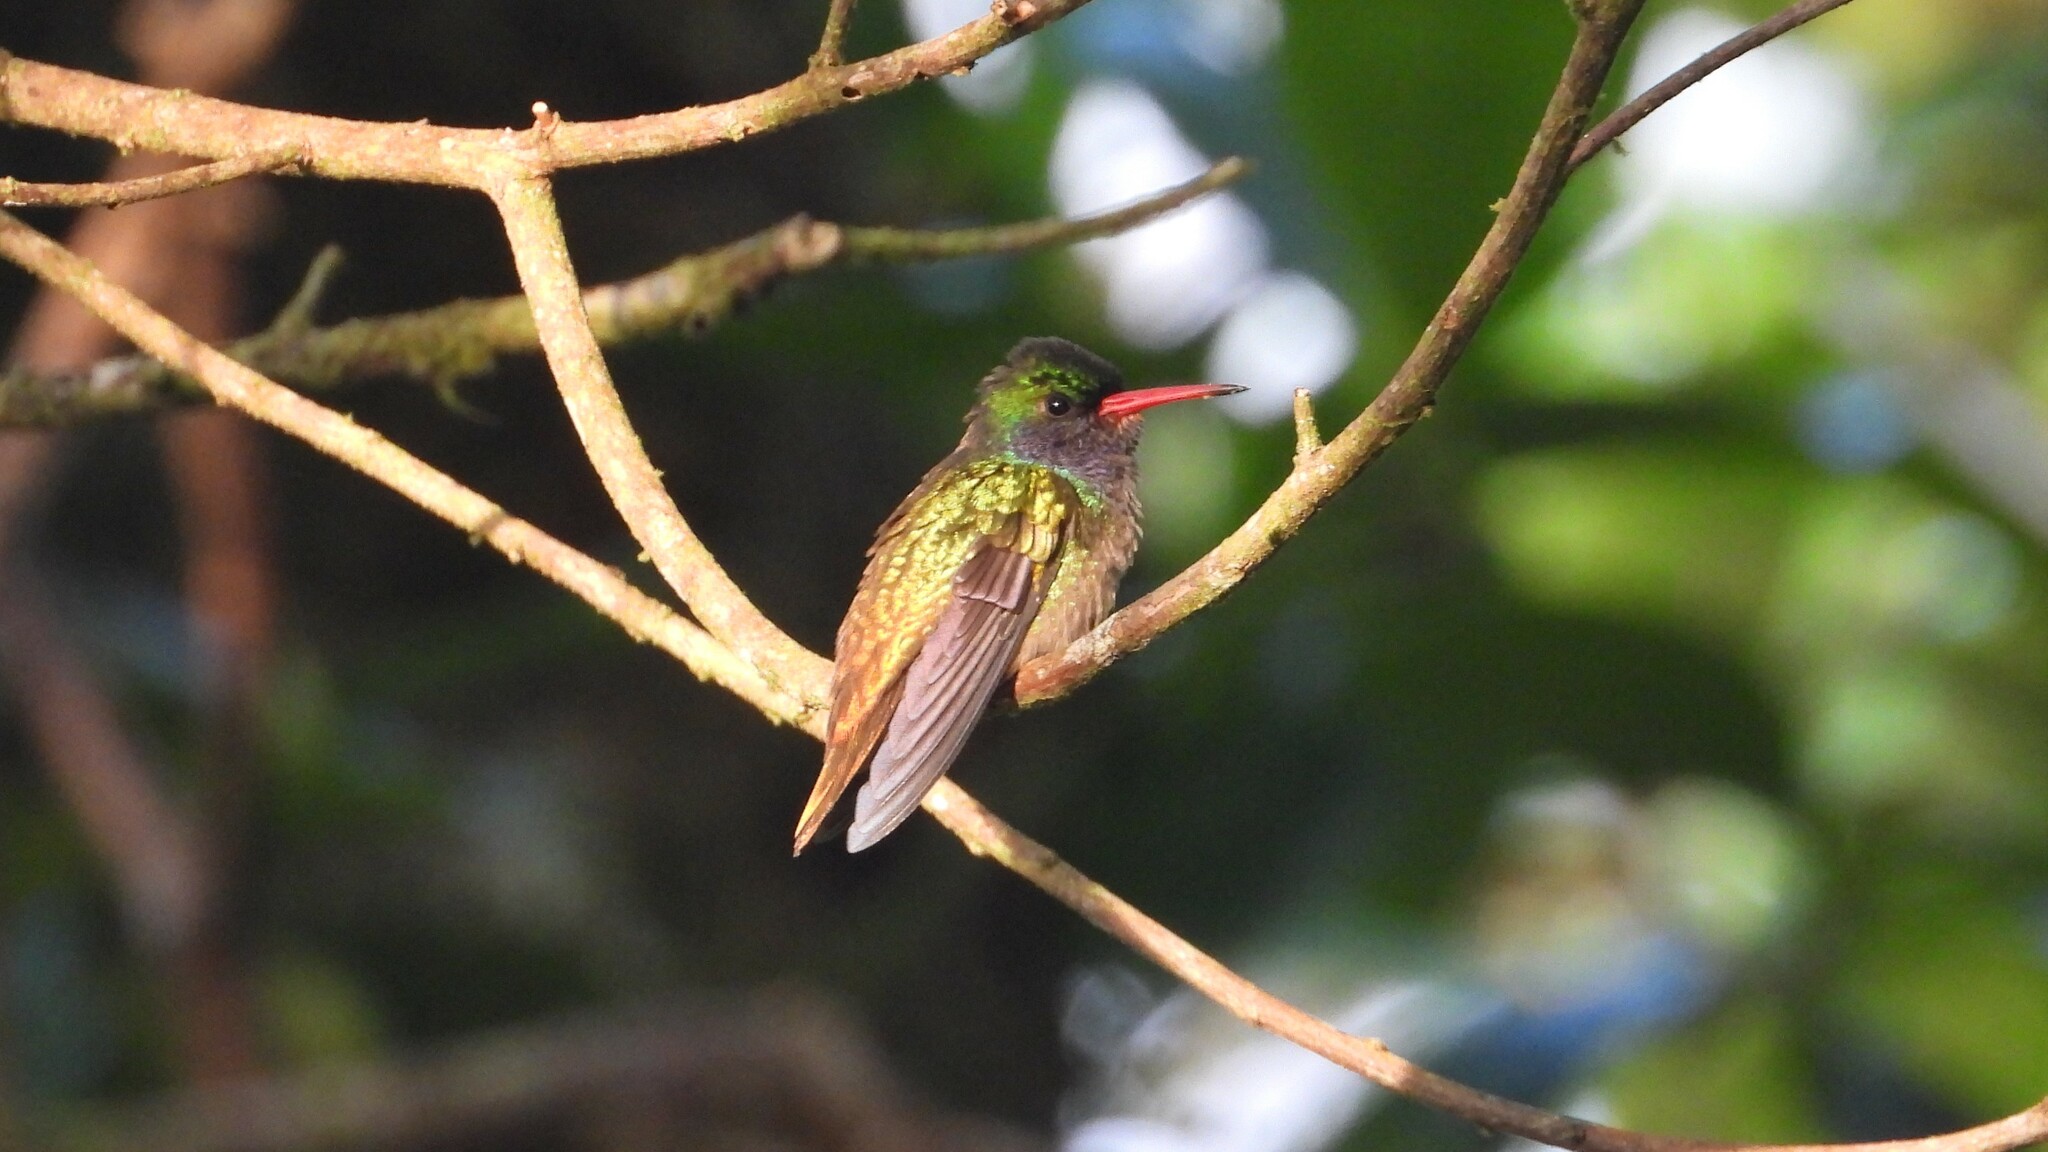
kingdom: Animalia
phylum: Chordata
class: Aves
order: Apodiformes
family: Trochilidae
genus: Chlorestes
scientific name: Chlorestes eliciae
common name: Blue-throated sapphire
